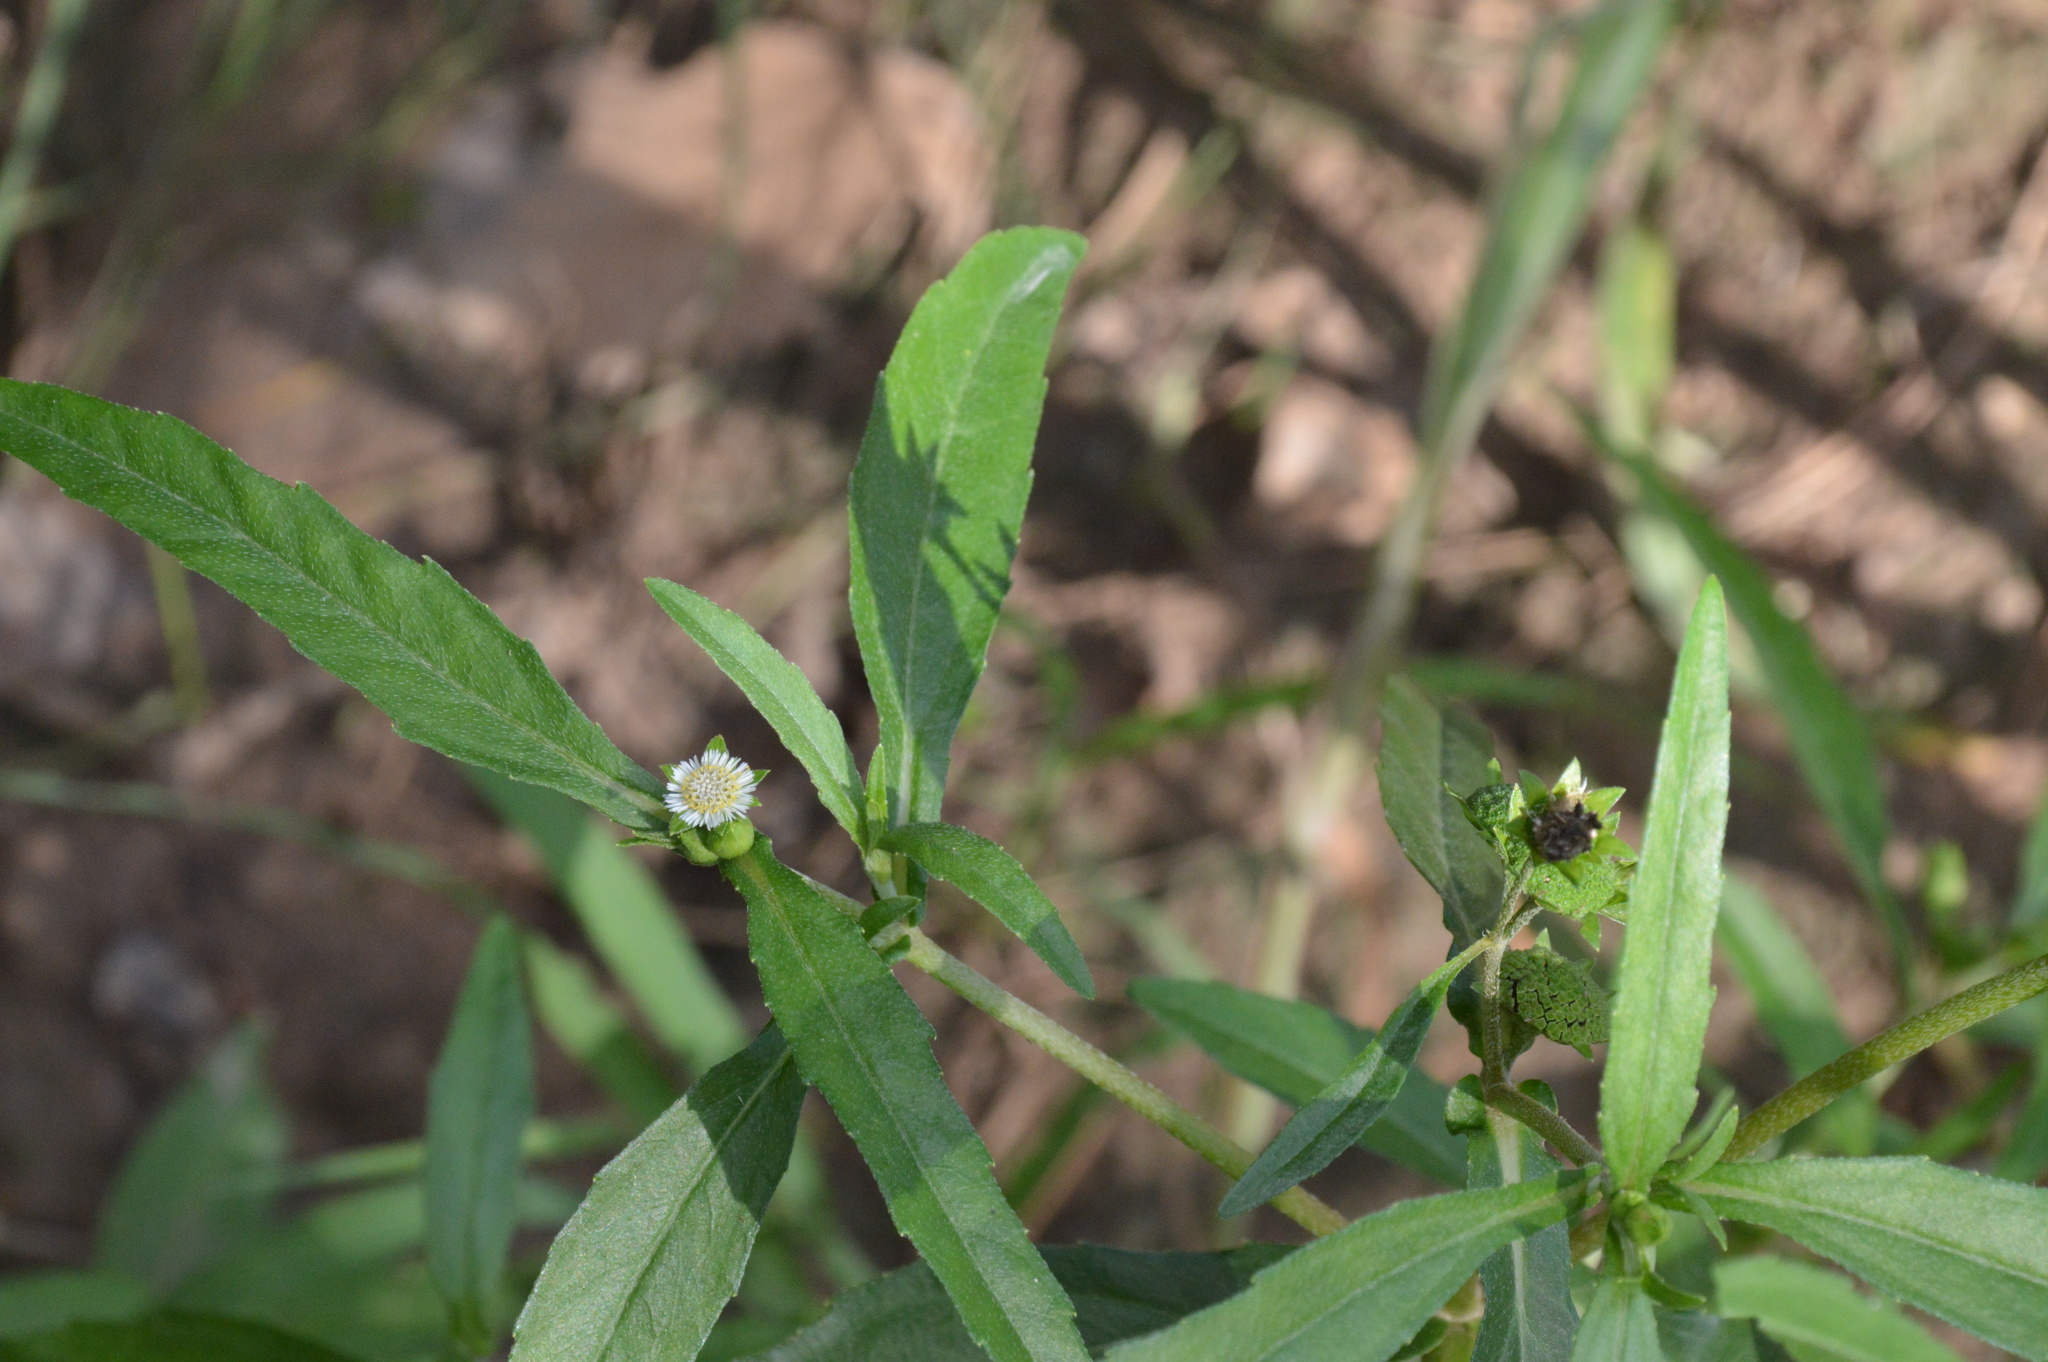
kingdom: Plantae
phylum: Tracheophyta
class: Magnoliopsida
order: Asterales
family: Asteraceae
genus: Eclipta
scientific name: Eclipta prostrata
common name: False daisy
